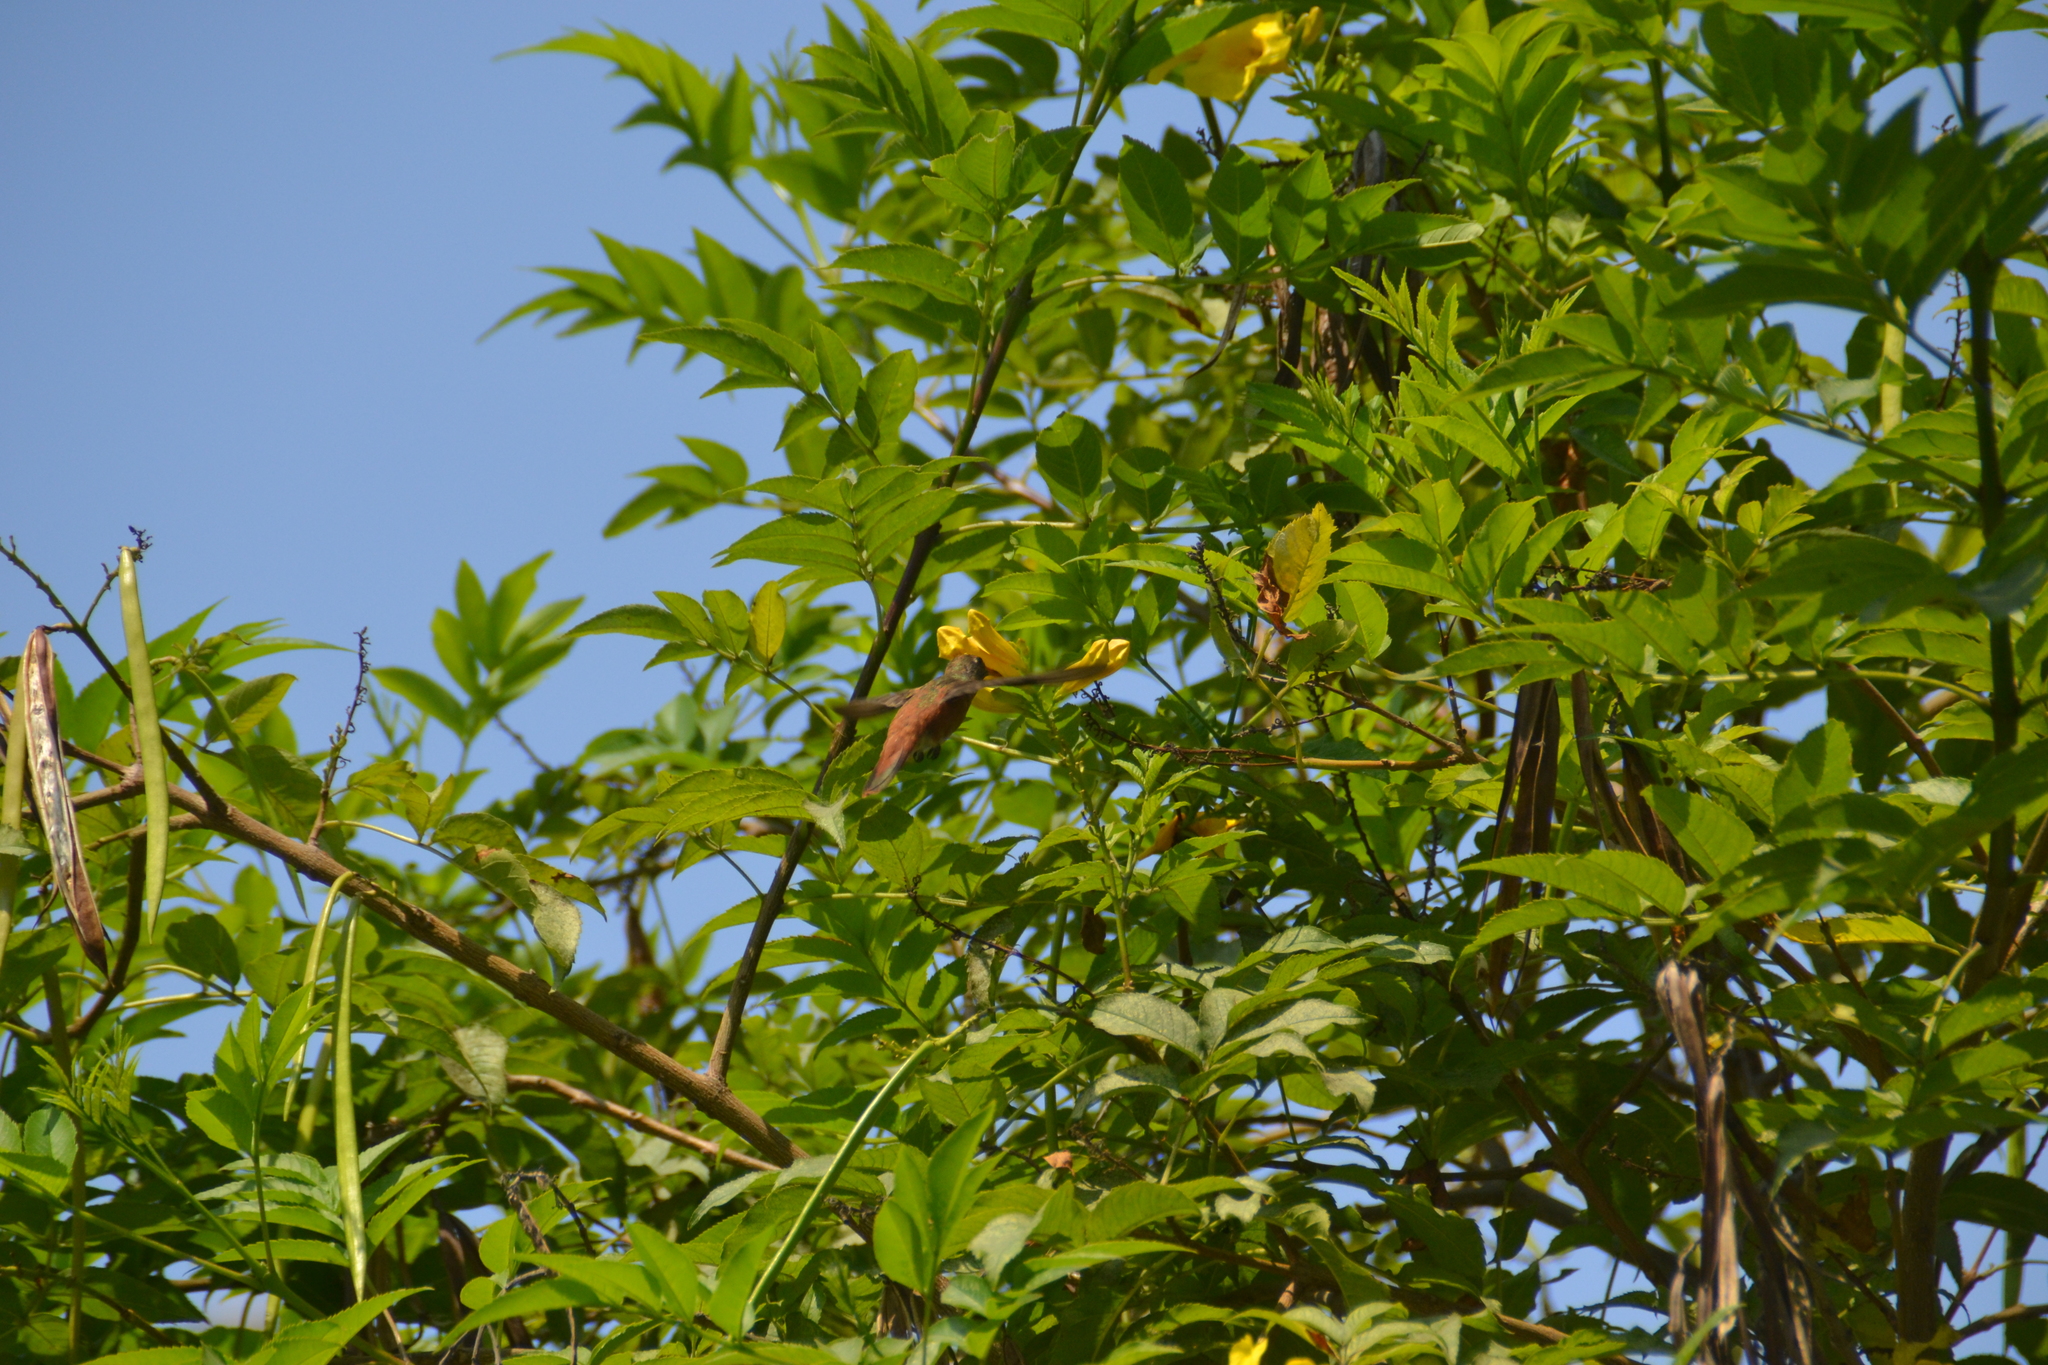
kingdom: Animalia
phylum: Chordata
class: Aves
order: Apodiformes
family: Trochilidae
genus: Amazilis
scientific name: Amazilis amazilia
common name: Amazilia hummingbird
